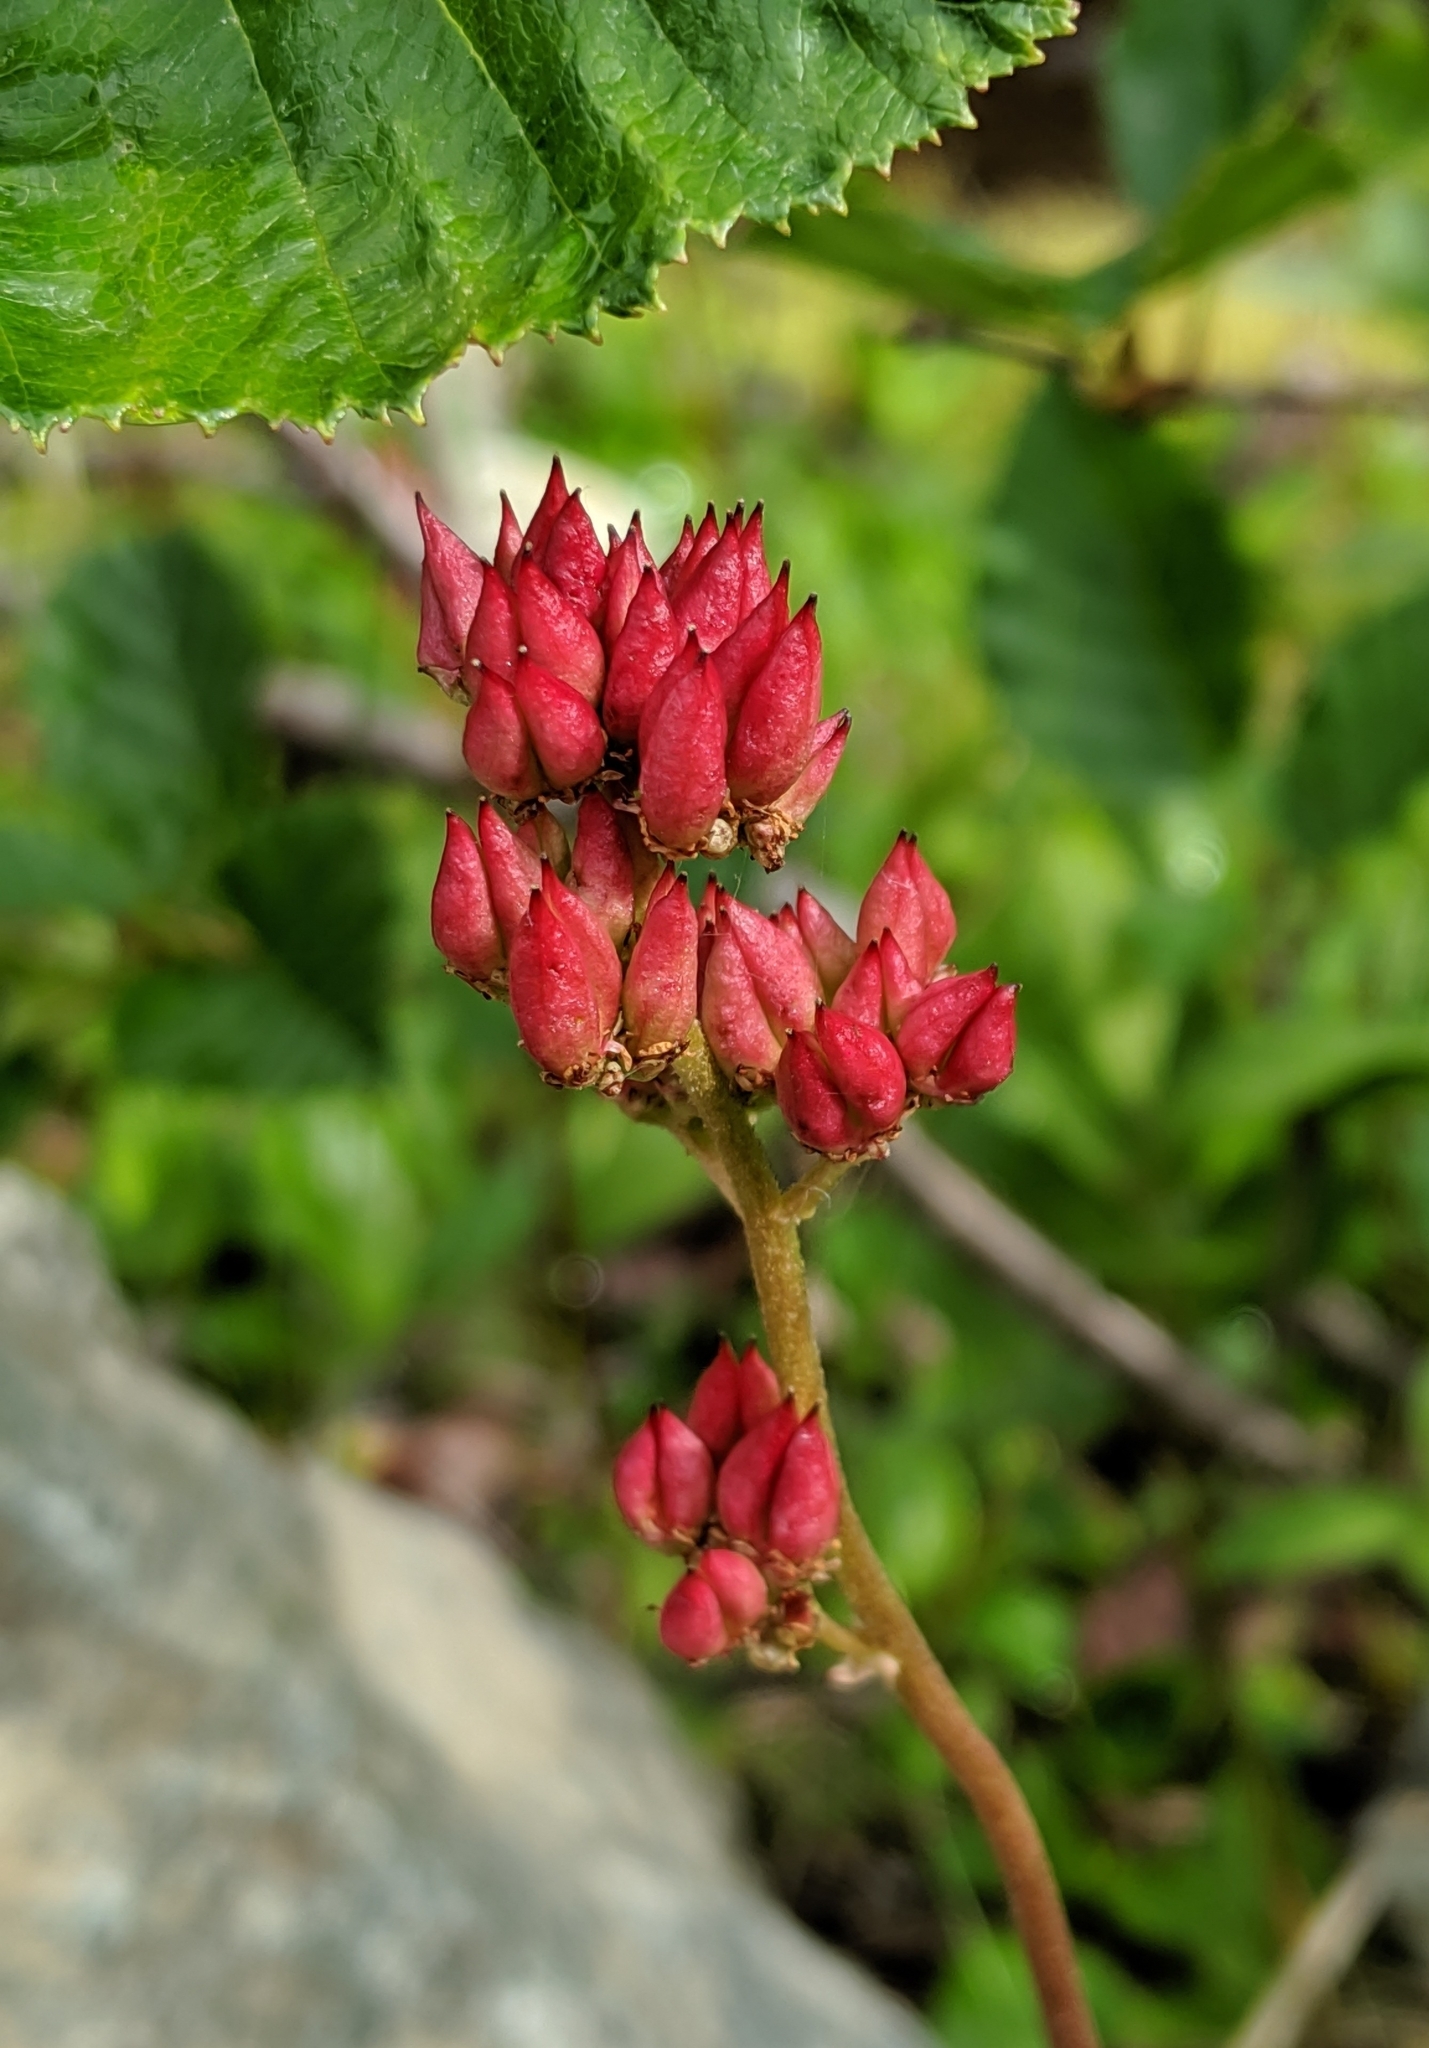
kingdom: Plantae
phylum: Tracheophyta
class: Magnoliopsida
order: Saxifragales
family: Saxifragaceae
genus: Leptarrhena
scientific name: Leptarrhena pyrolifolia
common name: Leatherleaf-saxifrage
